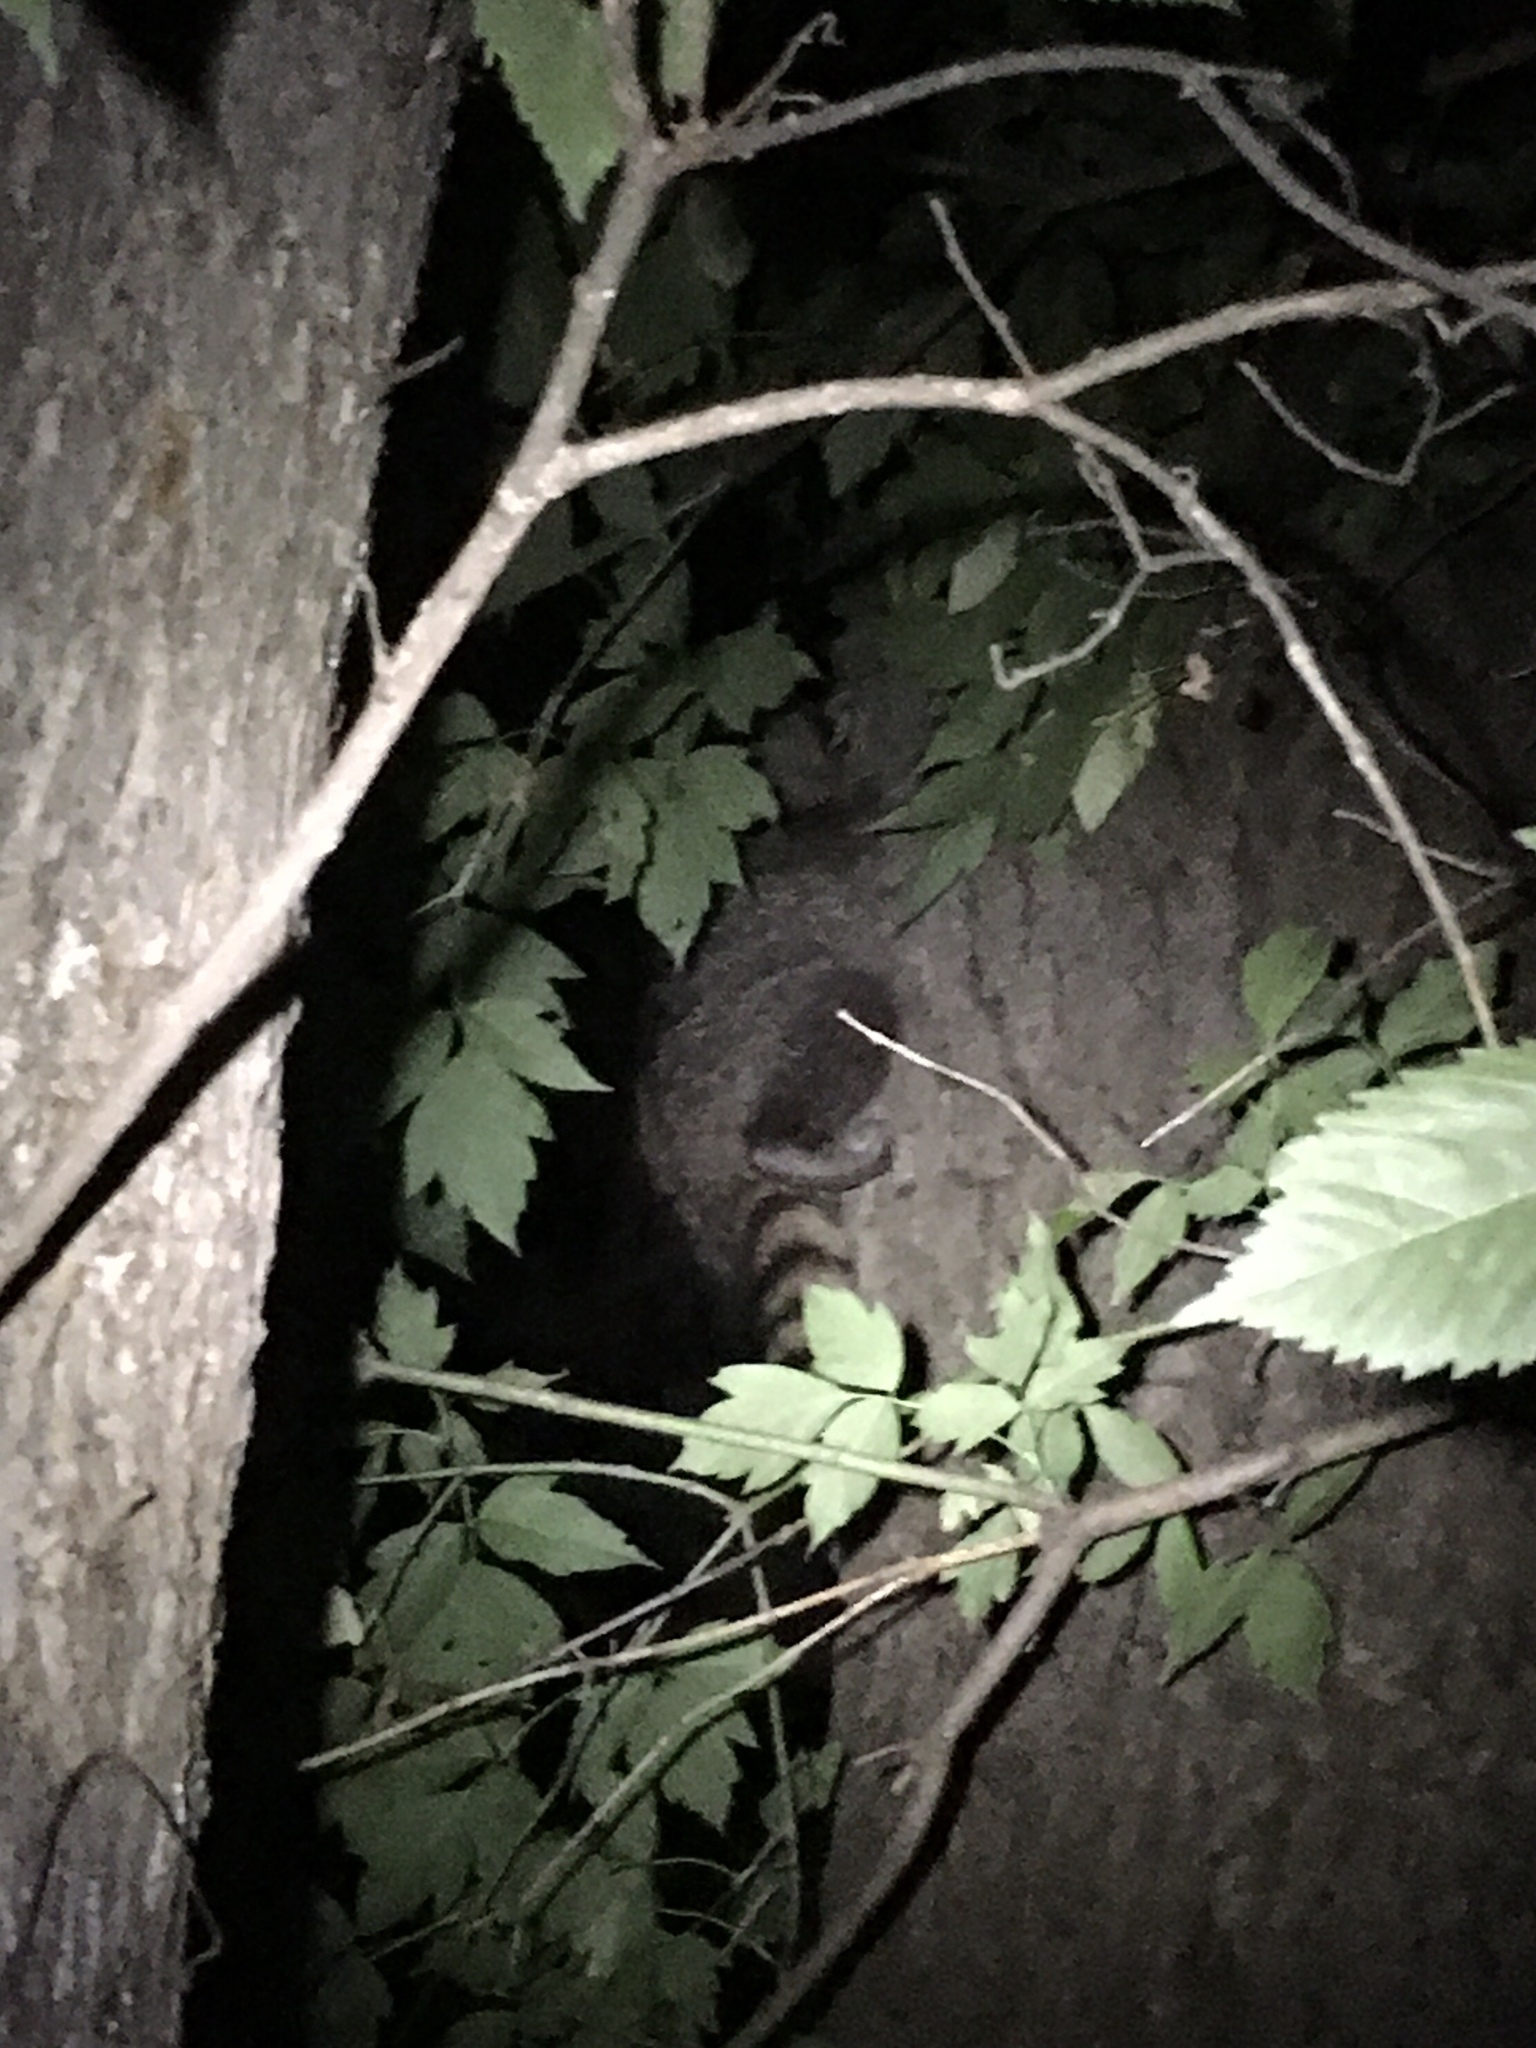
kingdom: Animalia
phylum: Chordata
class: Mammalia
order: Carnivora
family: Procyonidae
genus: Procyon
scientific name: Procyon lotor
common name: Raccoon
